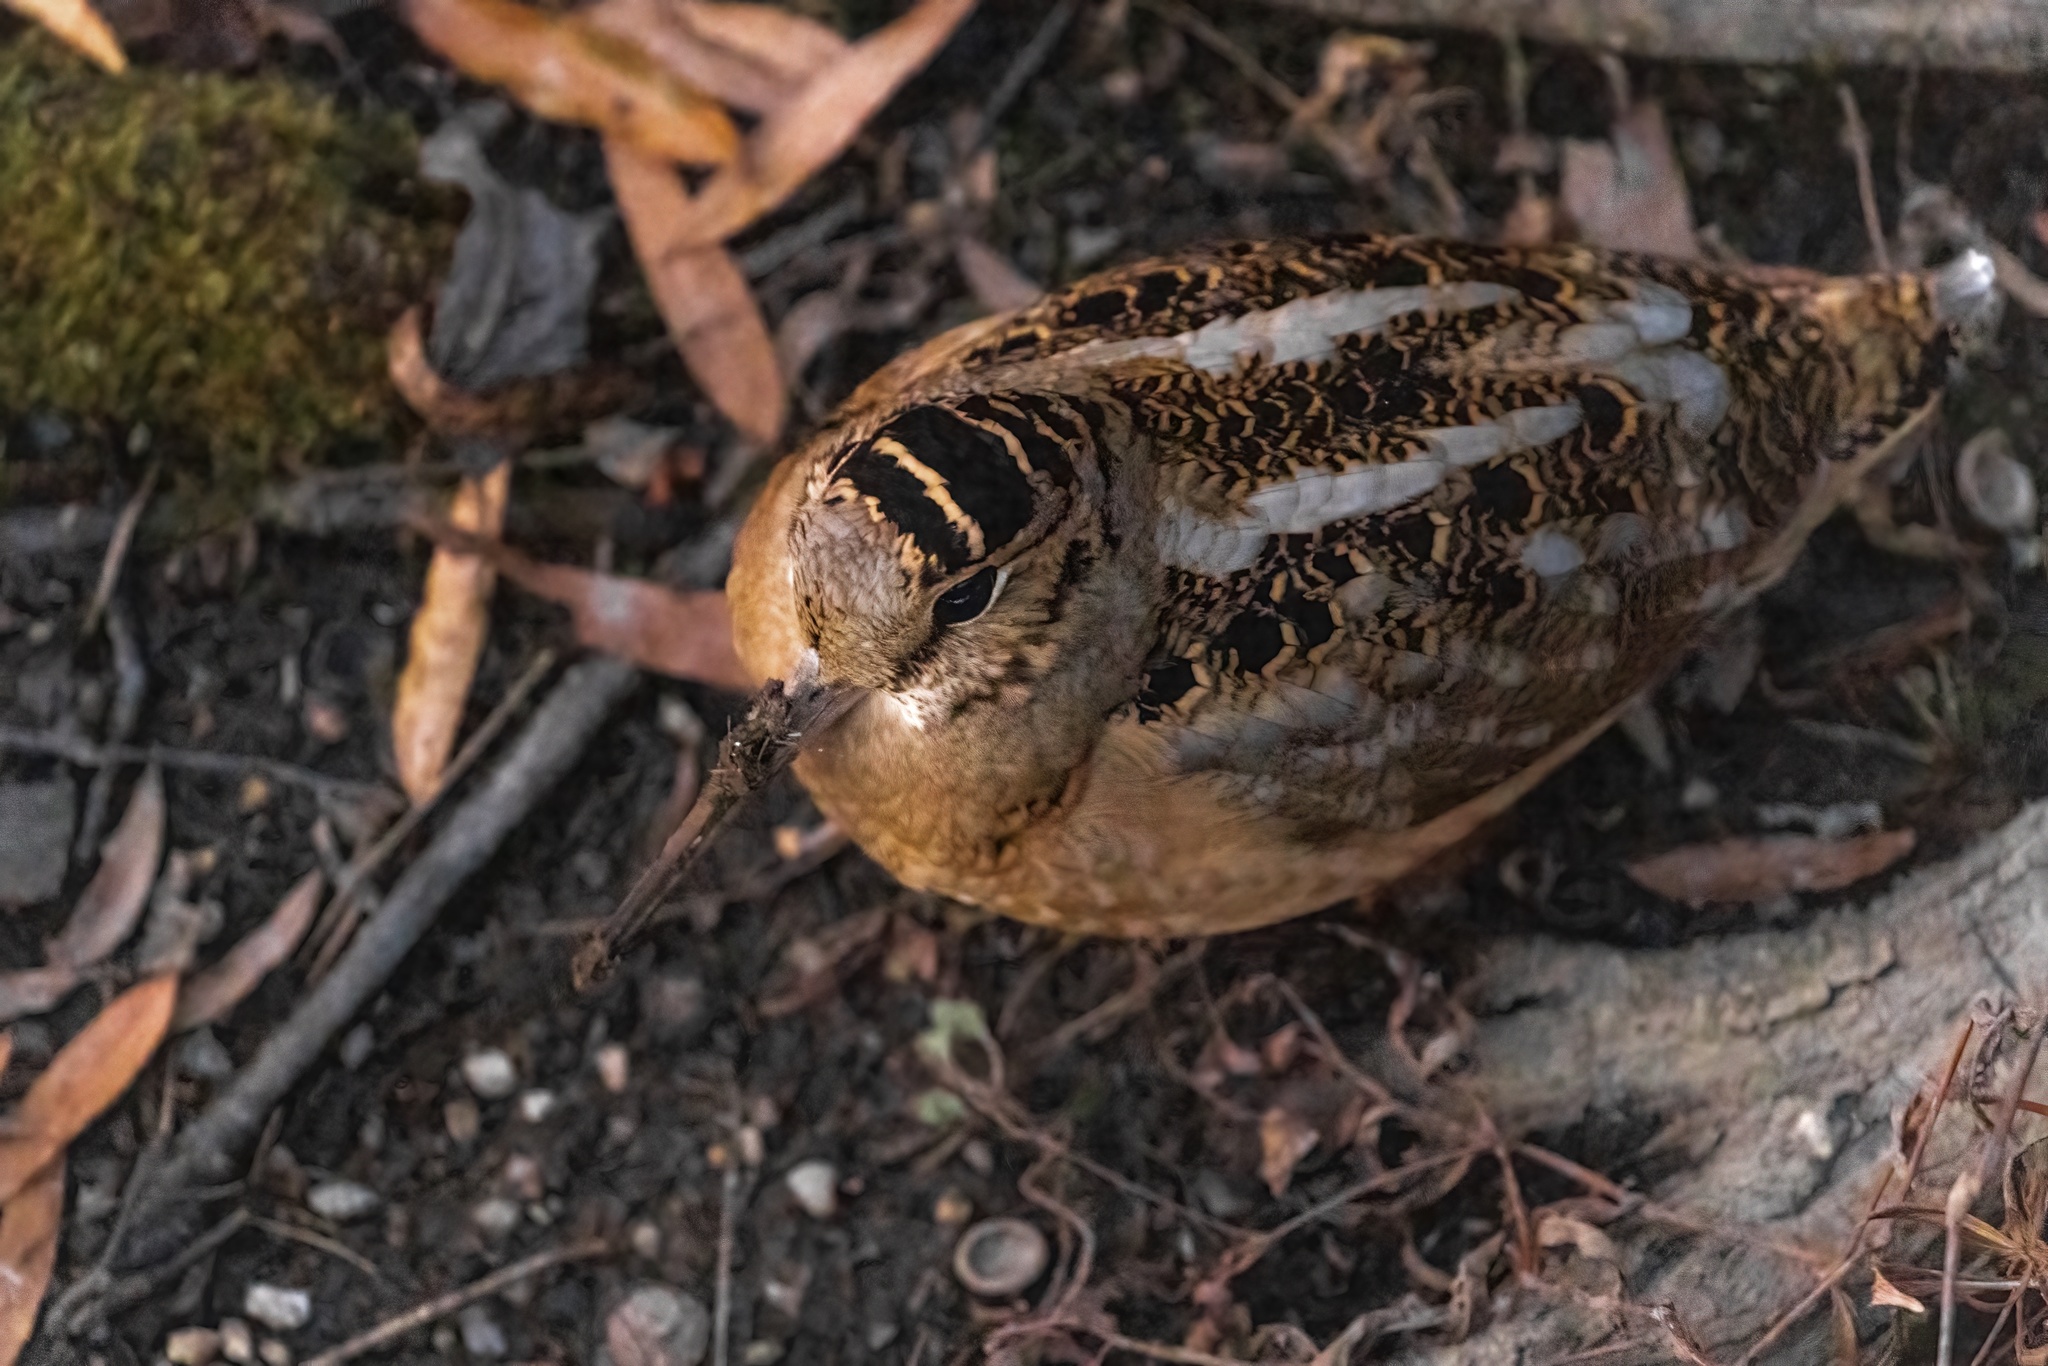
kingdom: Animalia
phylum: Chordata
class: Aves
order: Charadriiformes
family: Scolopacidae
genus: Scolopax
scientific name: Scolopax minor
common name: American woodcock
